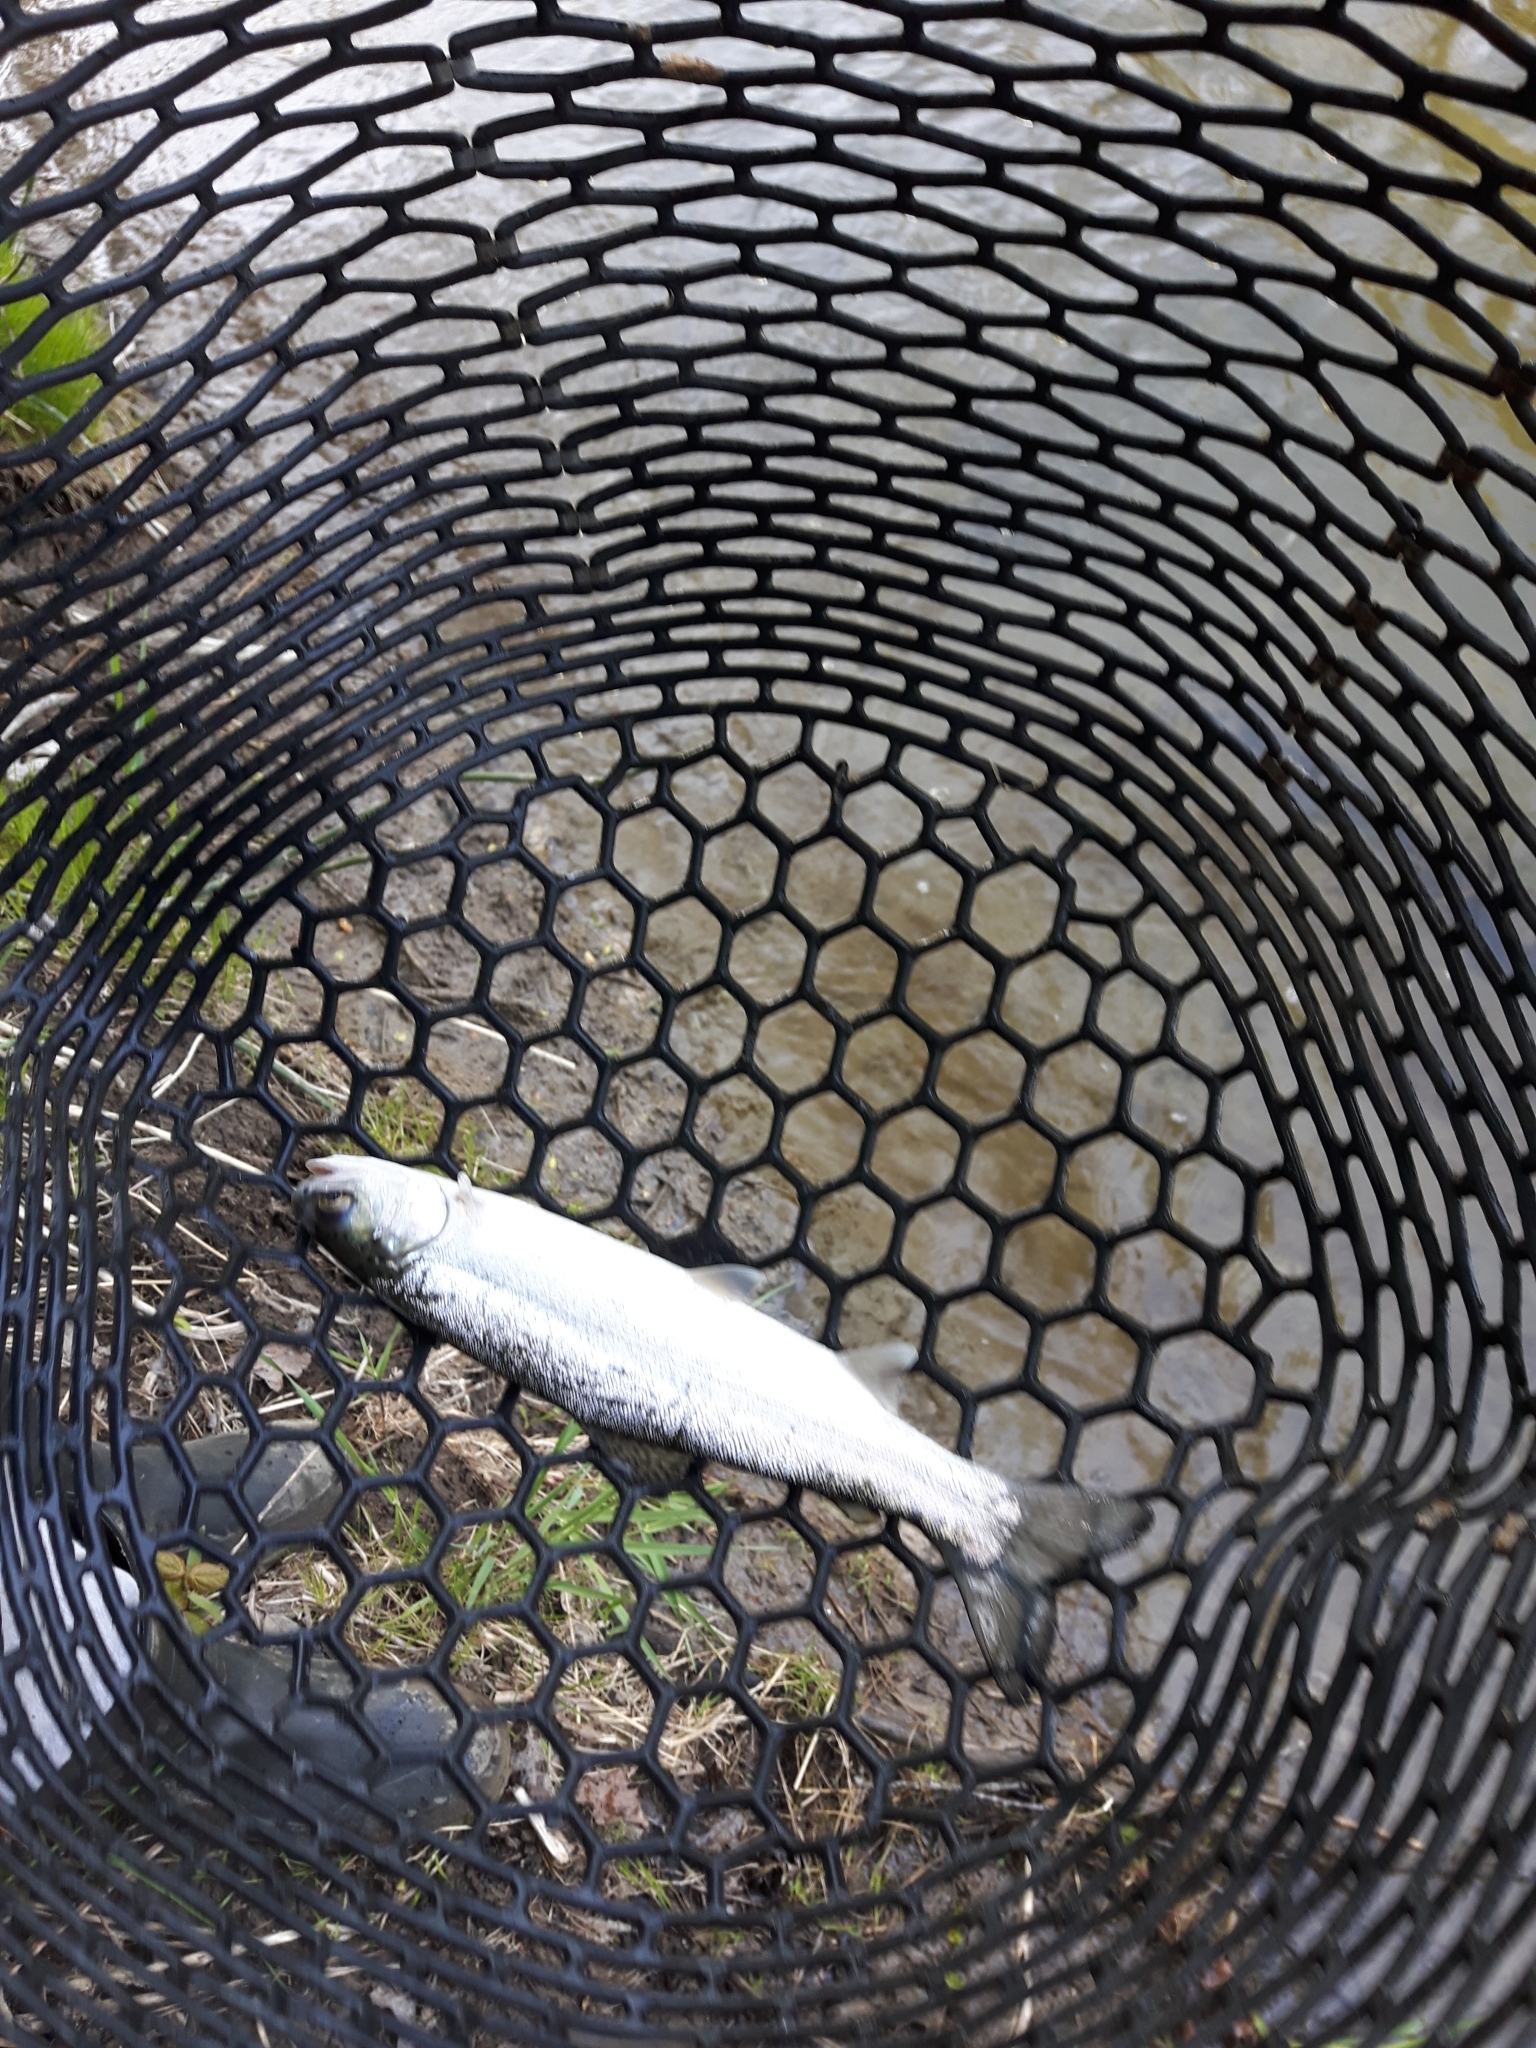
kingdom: Animalia
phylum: Chordata
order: Salmoniformes
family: Salmonidae
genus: Oncorhynchus
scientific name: Oncorhynchus mykiss
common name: Rainbow trout
